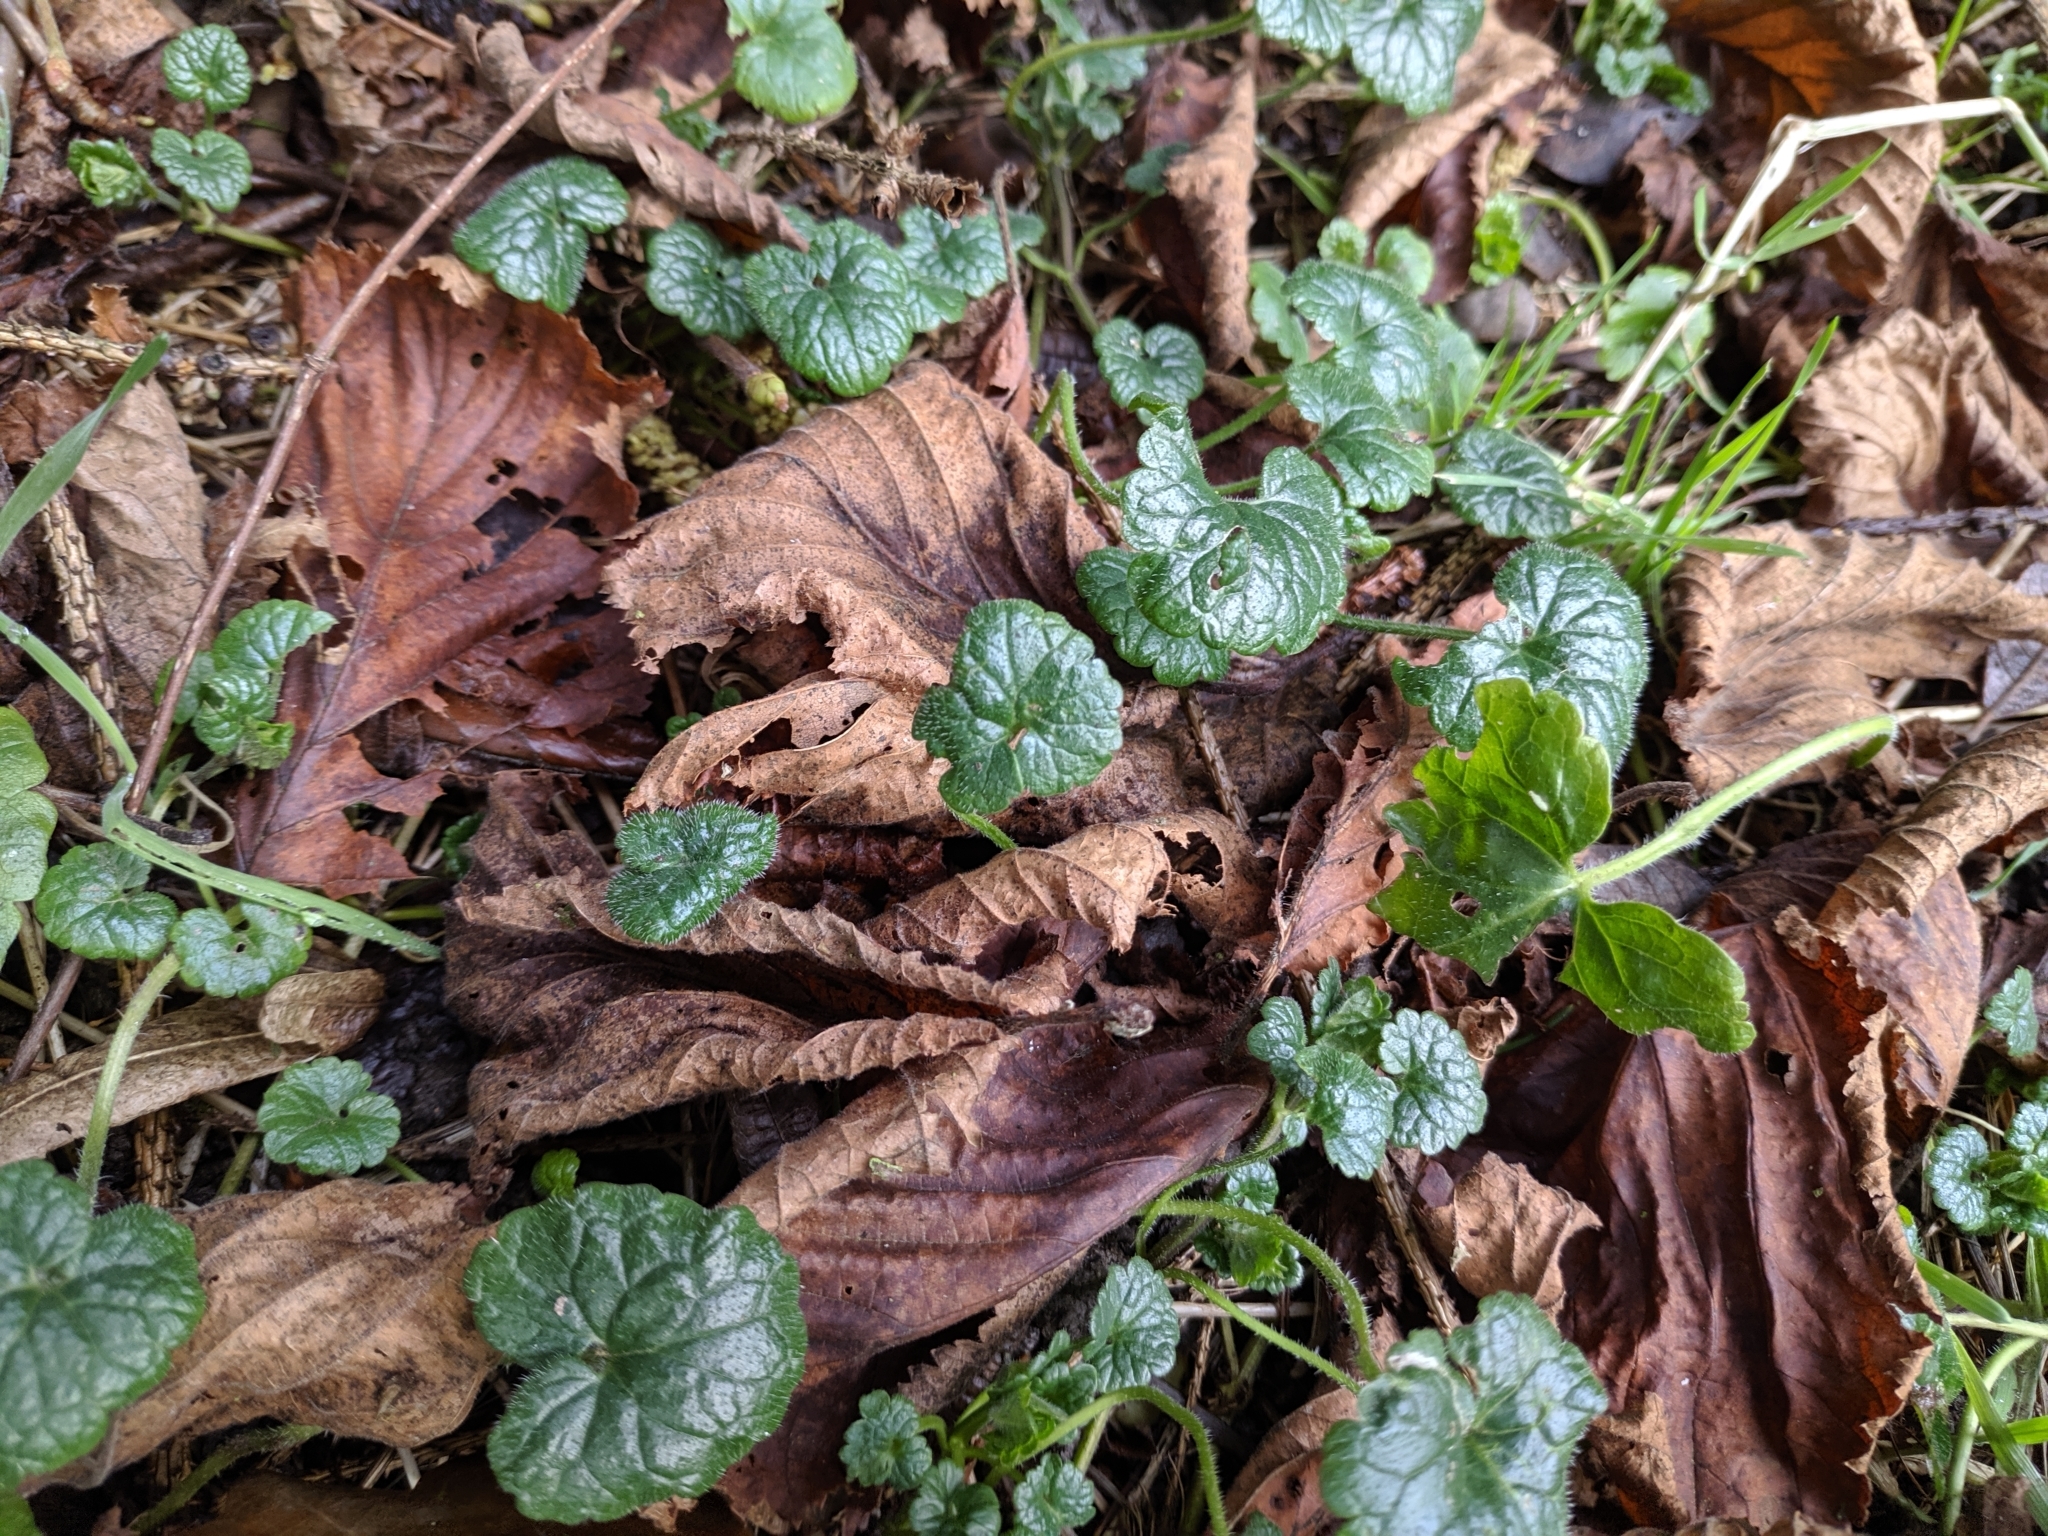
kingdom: Plantae
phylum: Tracheophyta
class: Magnoliopsida
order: Lamiales
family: Lamiaceae
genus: Glechoma
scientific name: Glechoma hederacea
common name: Ground ivy
